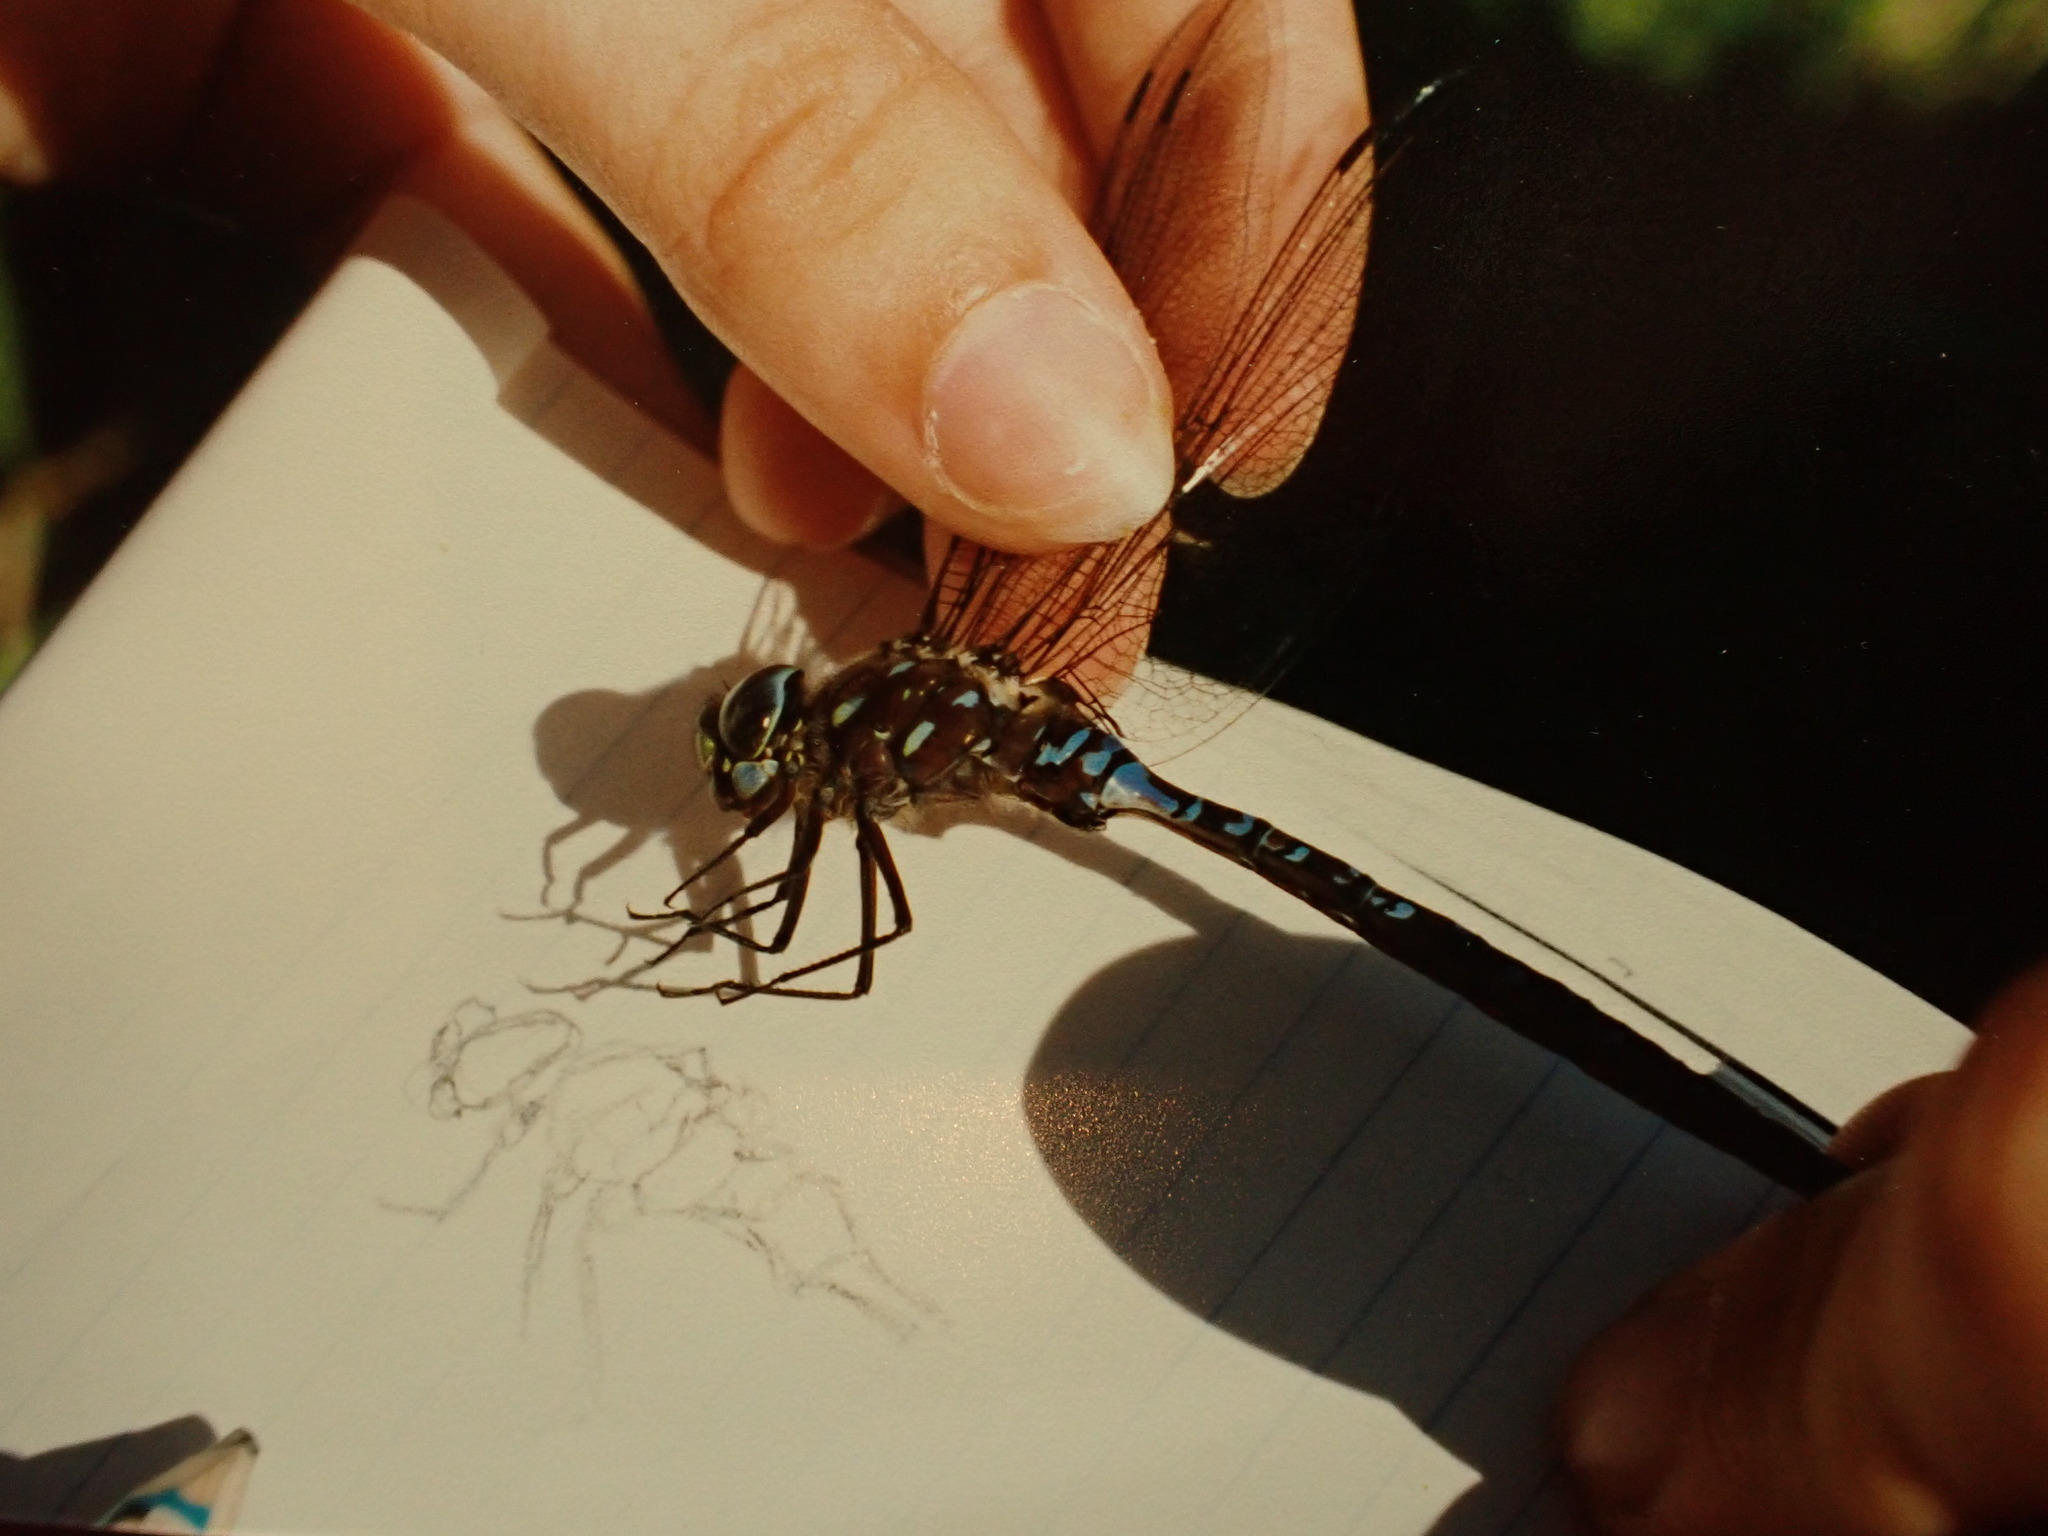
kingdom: Animalia
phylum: Arthropoda
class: Insecta
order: Odonata
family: Aeshnidae
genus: Aeshna
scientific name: Aeshna interrupta
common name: Variable darner
